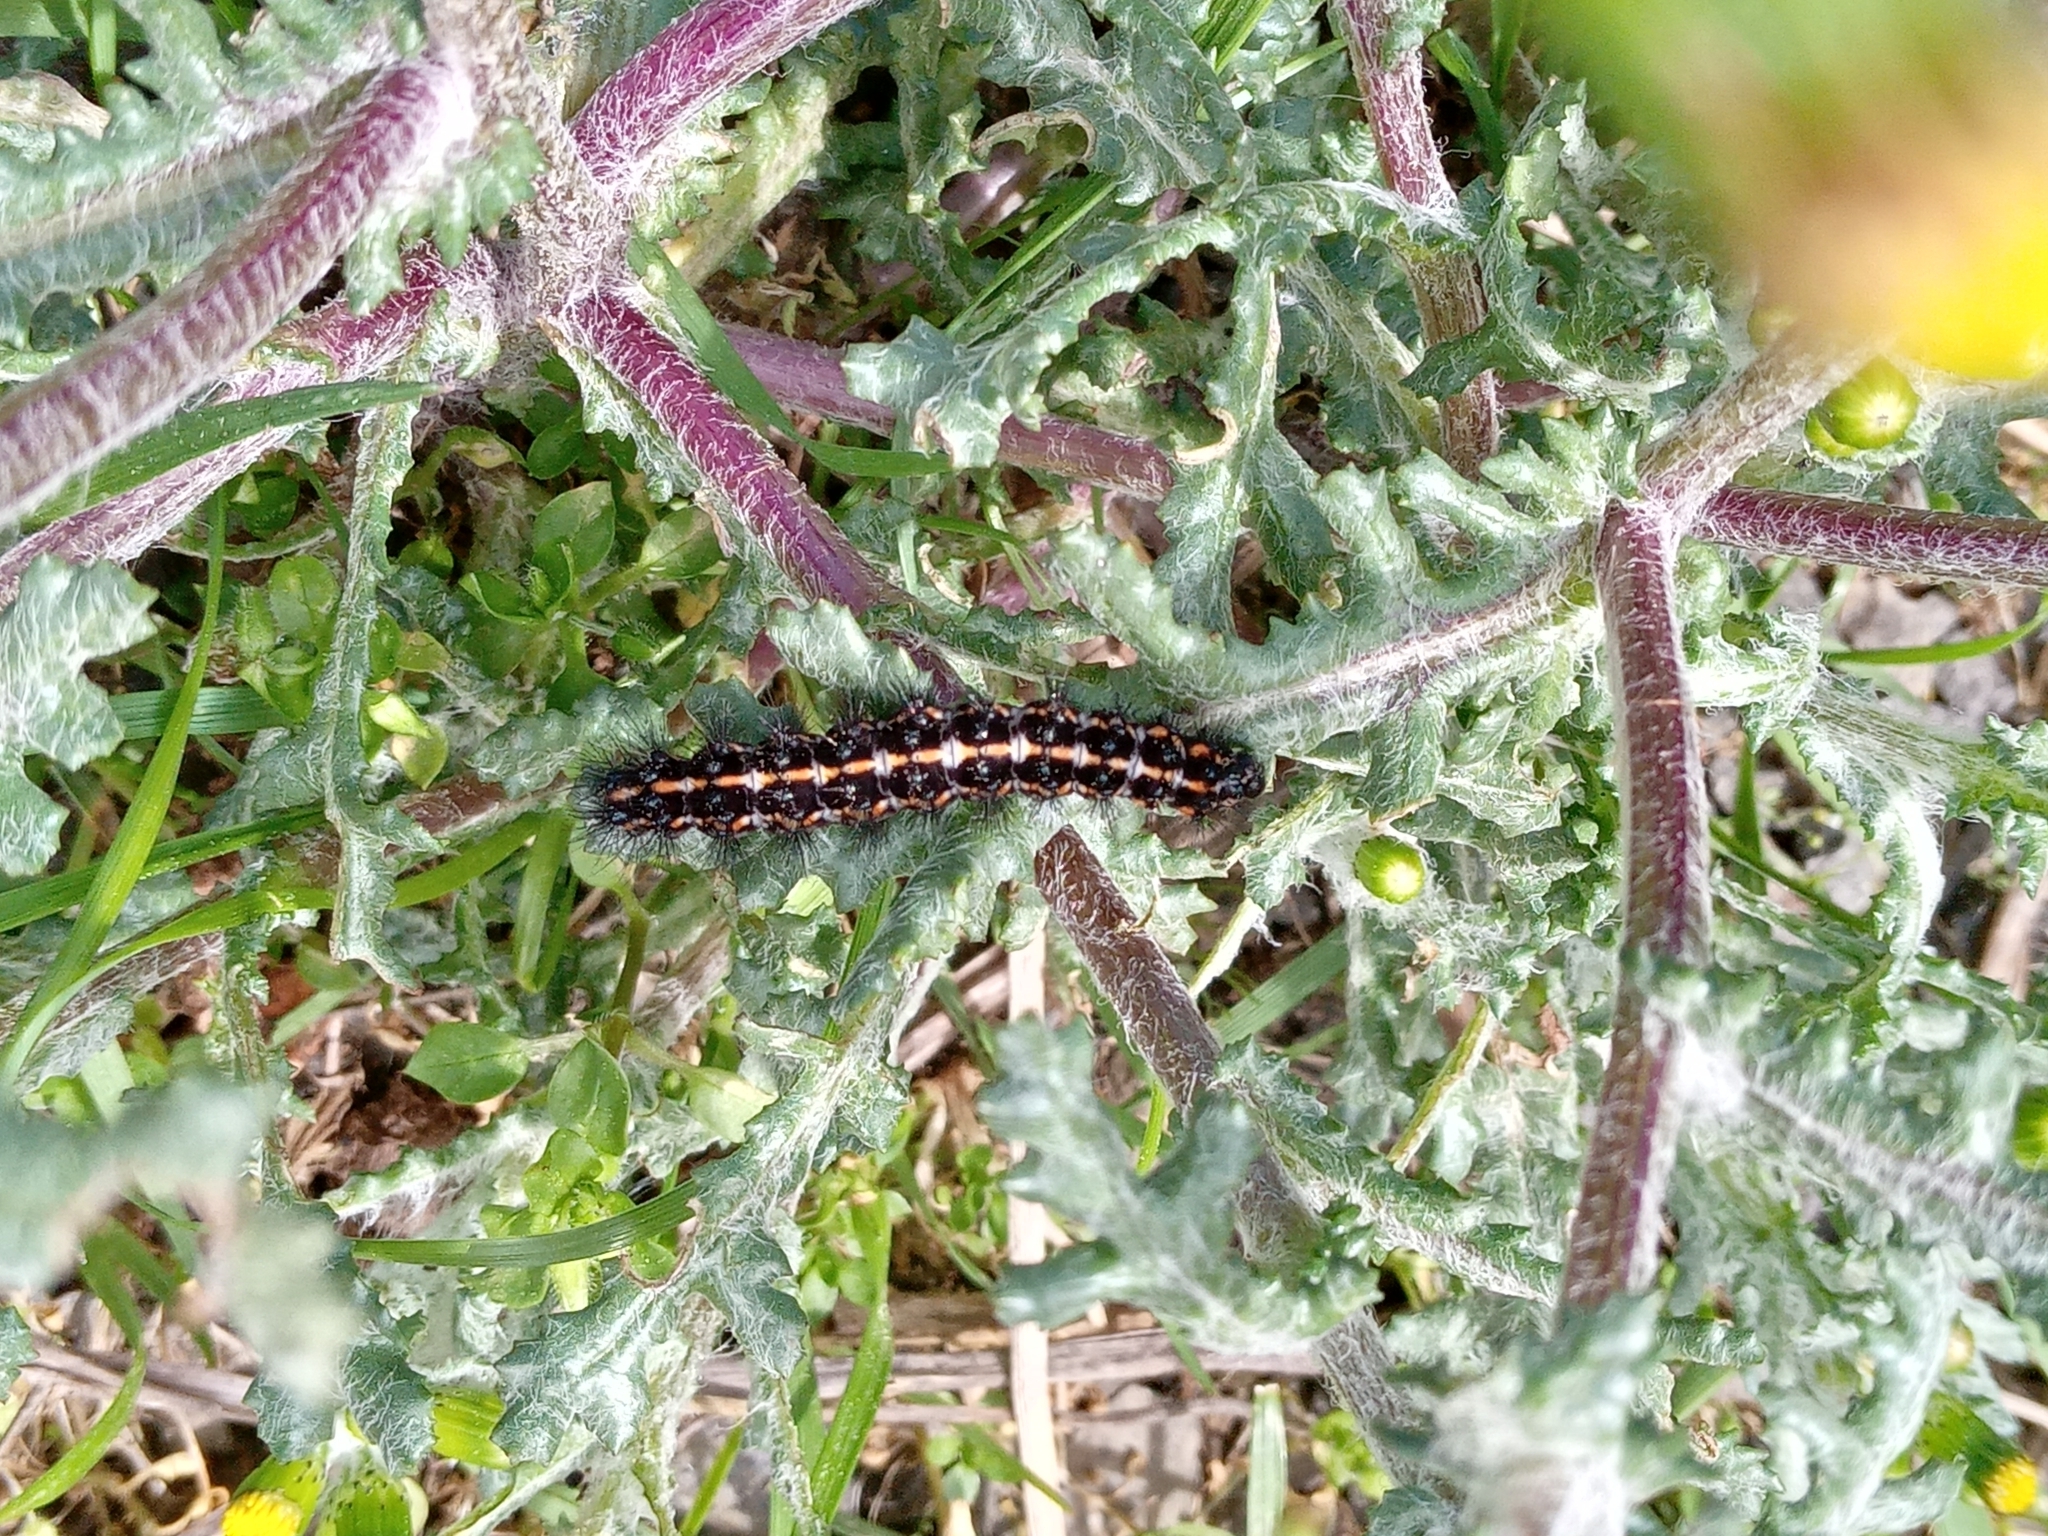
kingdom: Animalia
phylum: Arthropoda
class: Insecta
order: Lepidoptera
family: Erebidae
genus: Nyctemera
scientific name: Nyctemera annulatum
